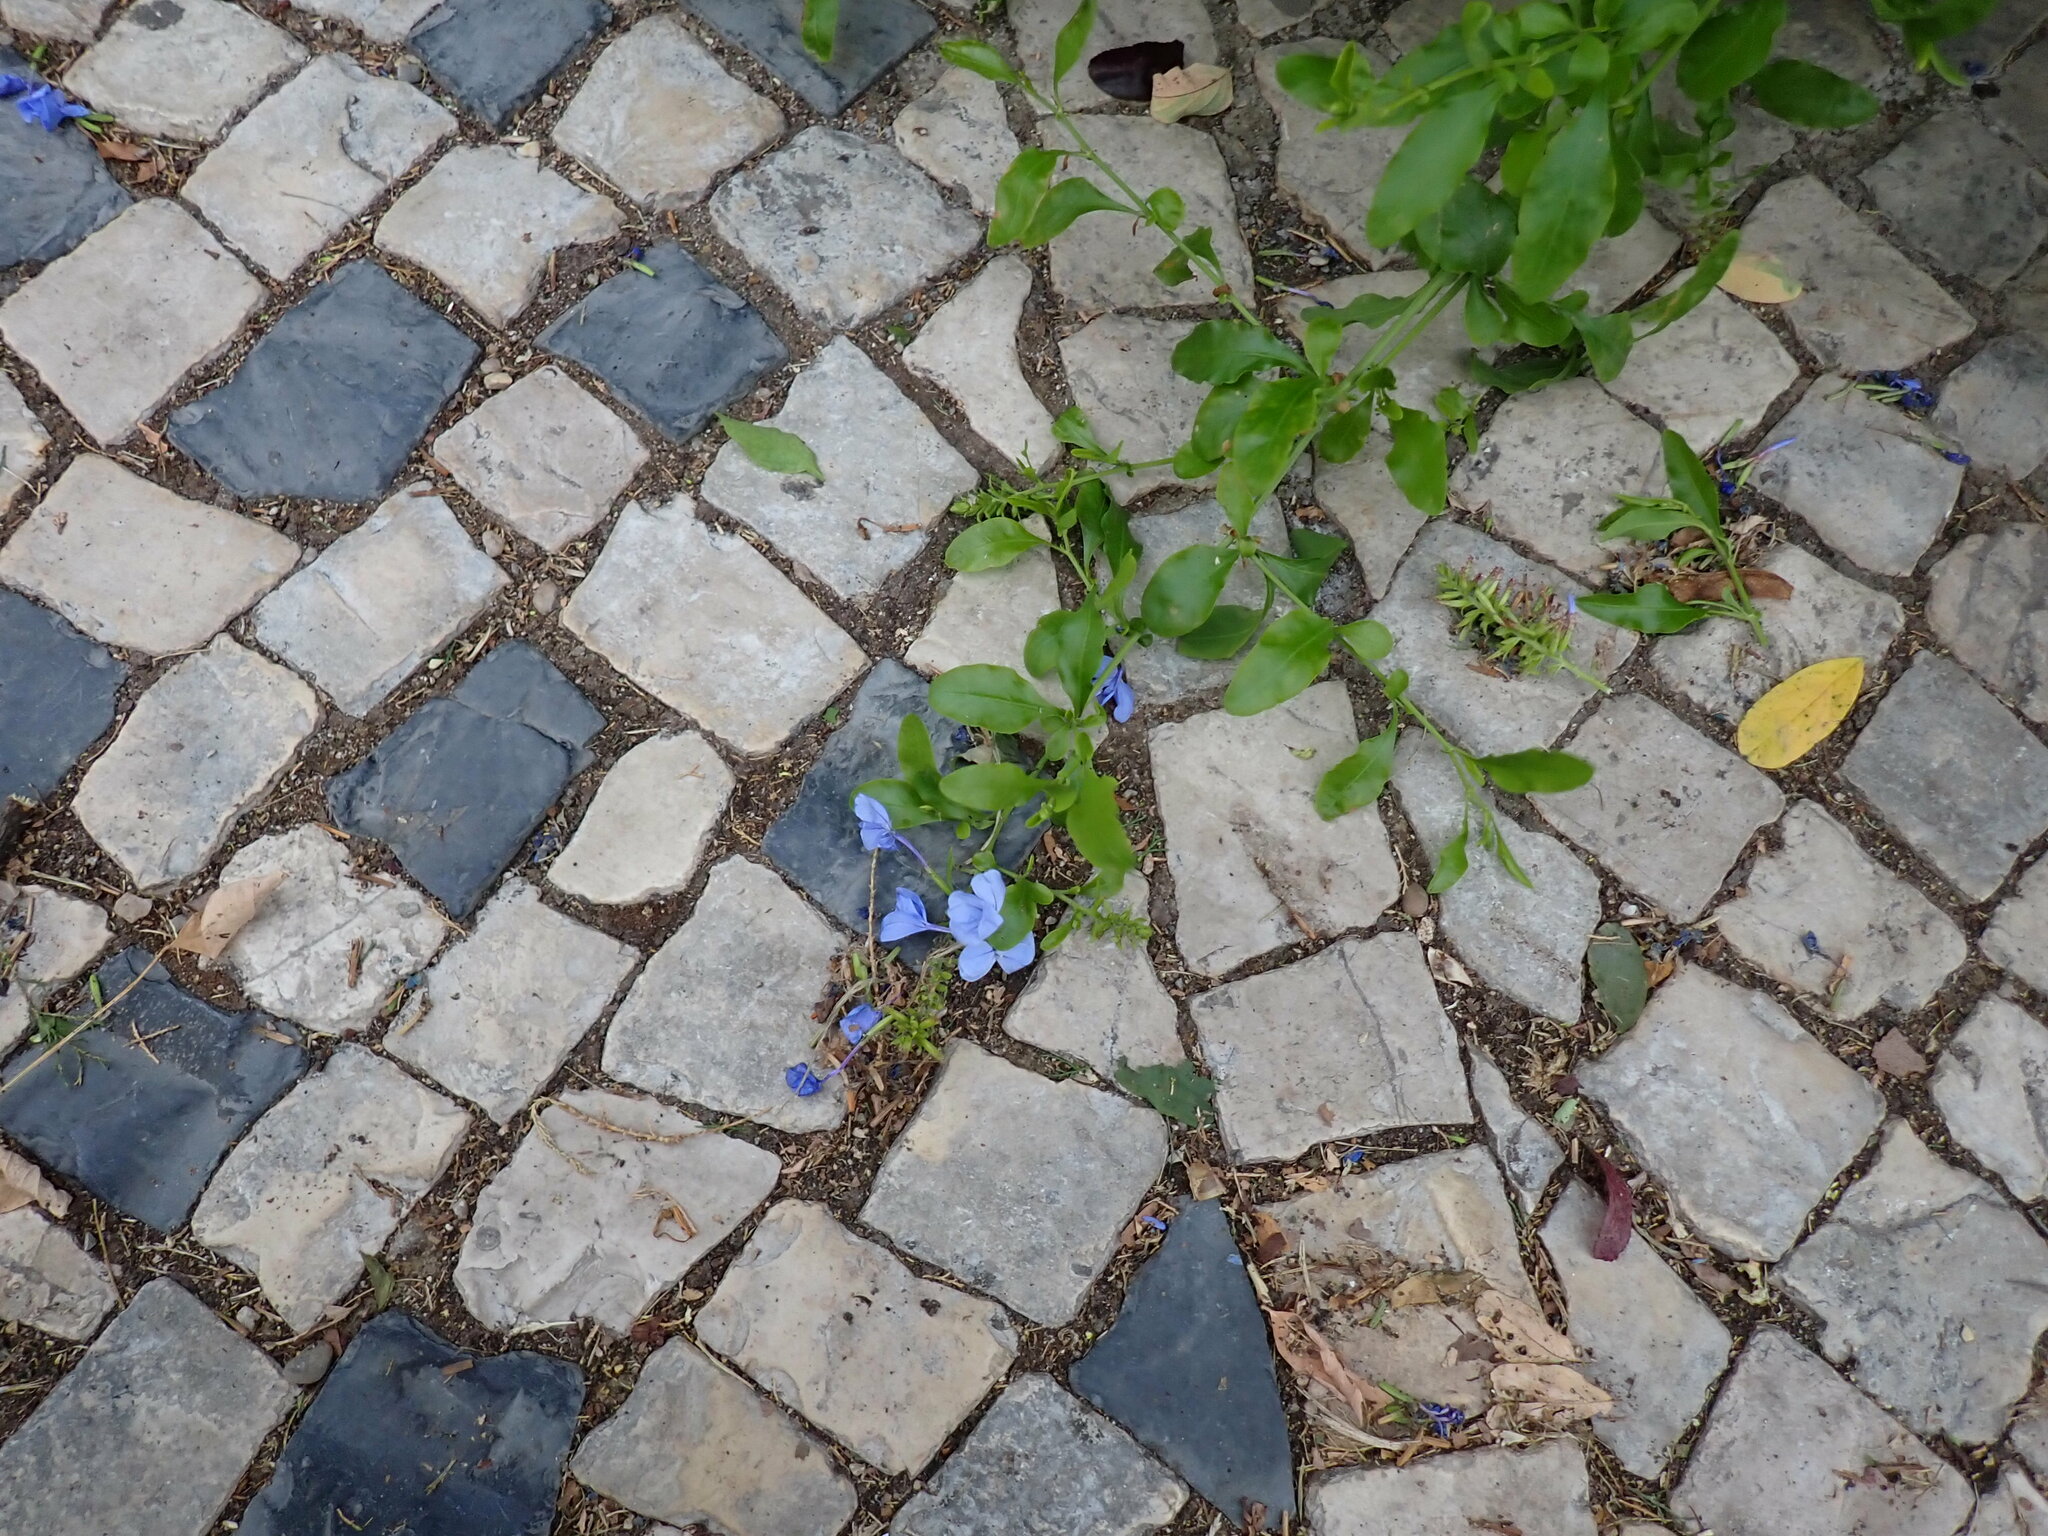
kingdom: Plantae
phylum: Tracheophyta
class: Magnoliopsida
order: Caryophyllales
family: Plumbaginaceae
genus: Plumbago
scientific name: Plumbago auriculata
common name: Cape leadwort
